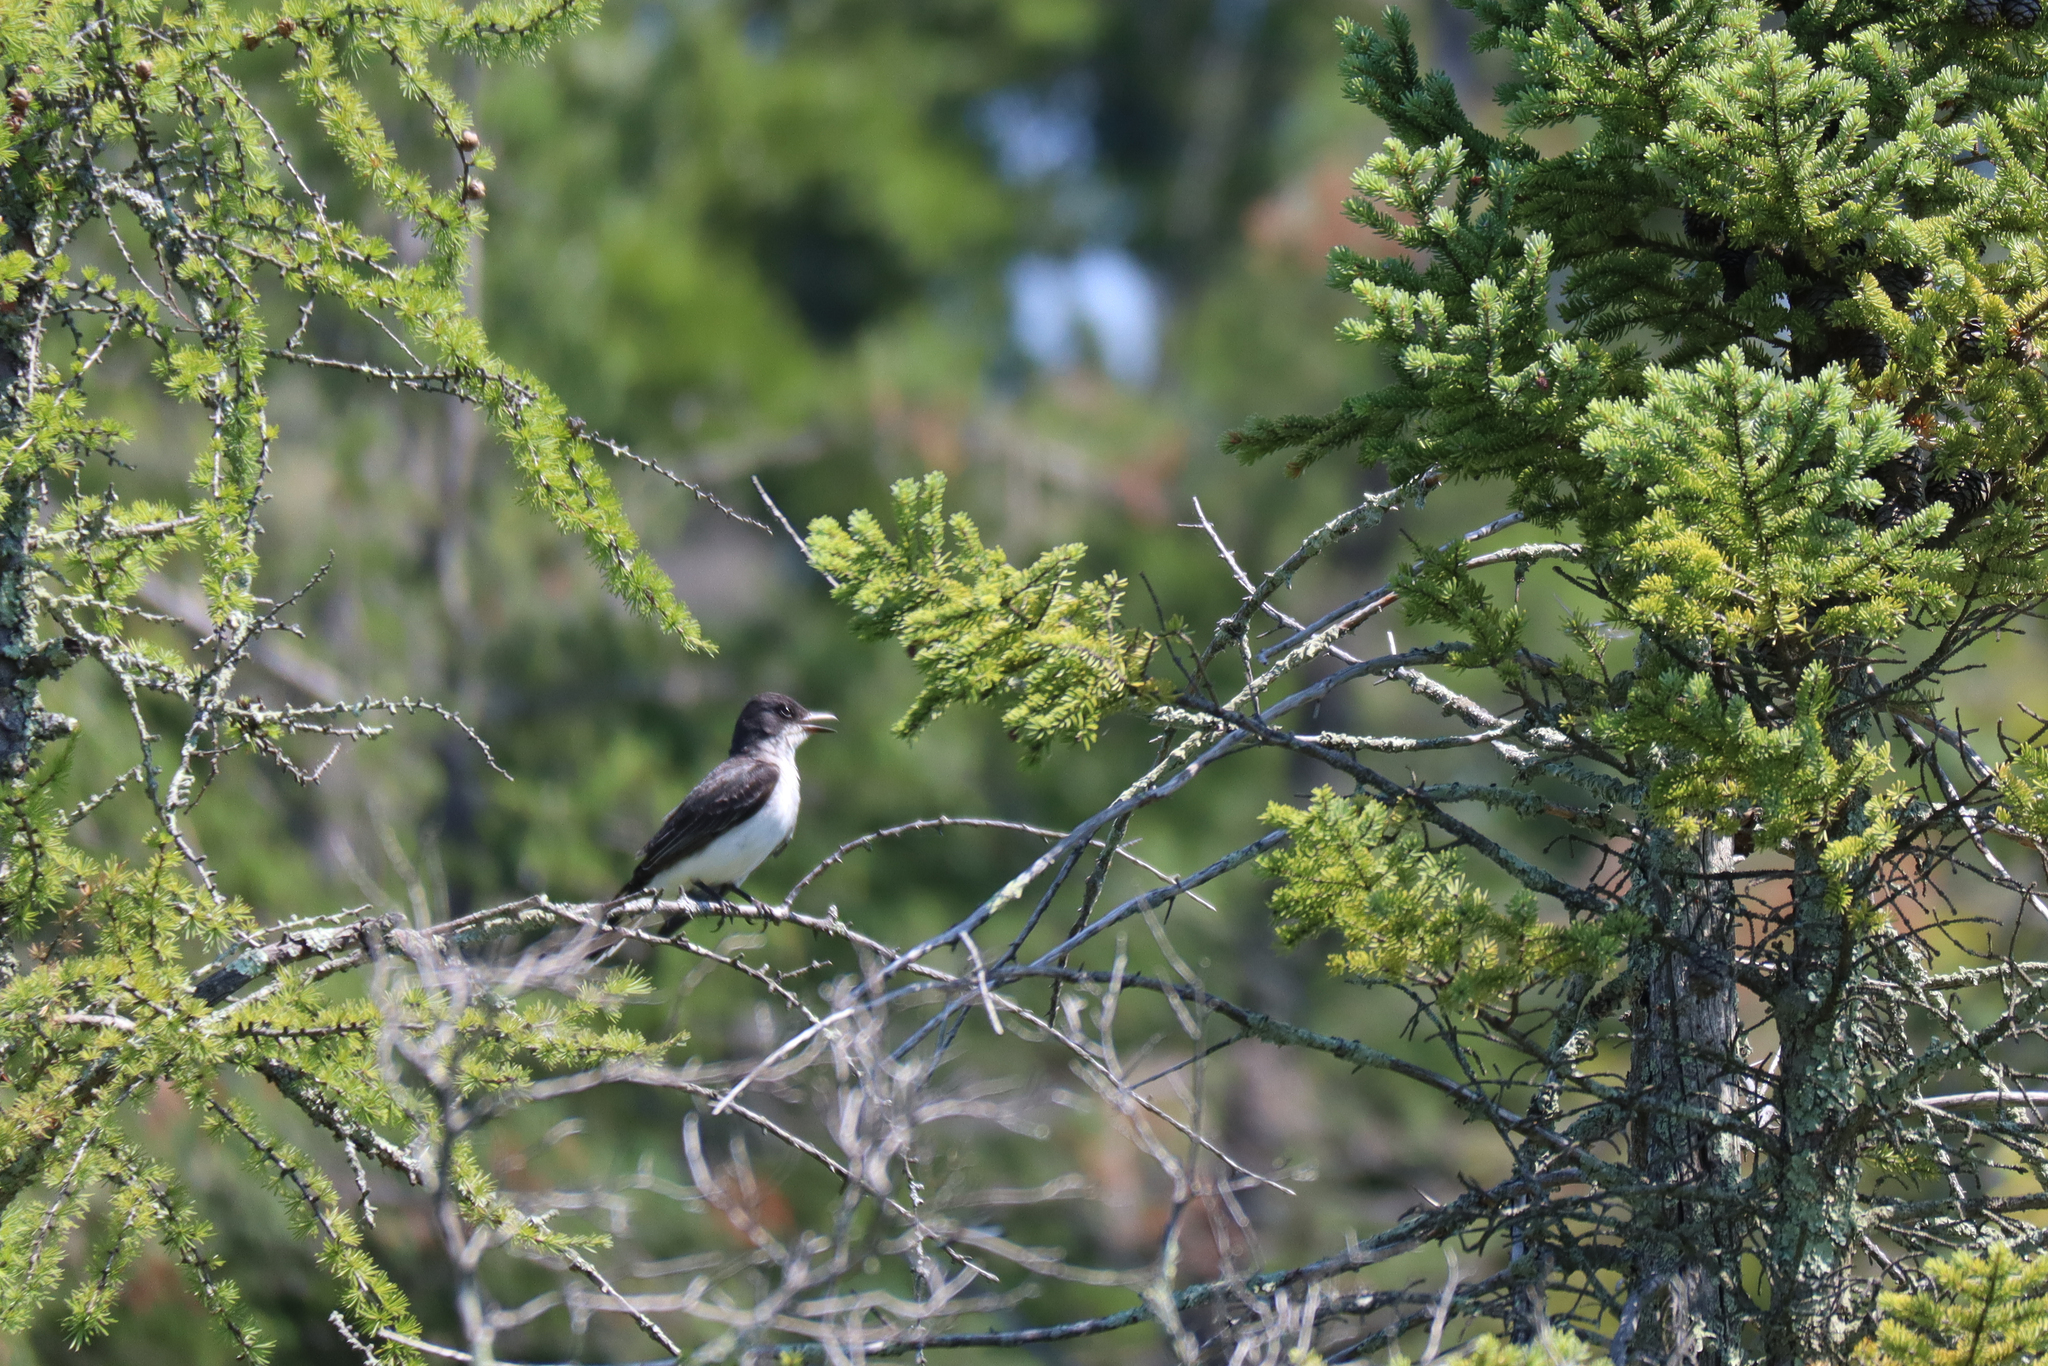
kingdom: Animalia
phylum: Chordata
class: Aves
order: Passeriformes
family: Tyrannidae
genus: Tyrannus
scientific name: Tyrannus tyrannus
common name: Eastern kingbird
